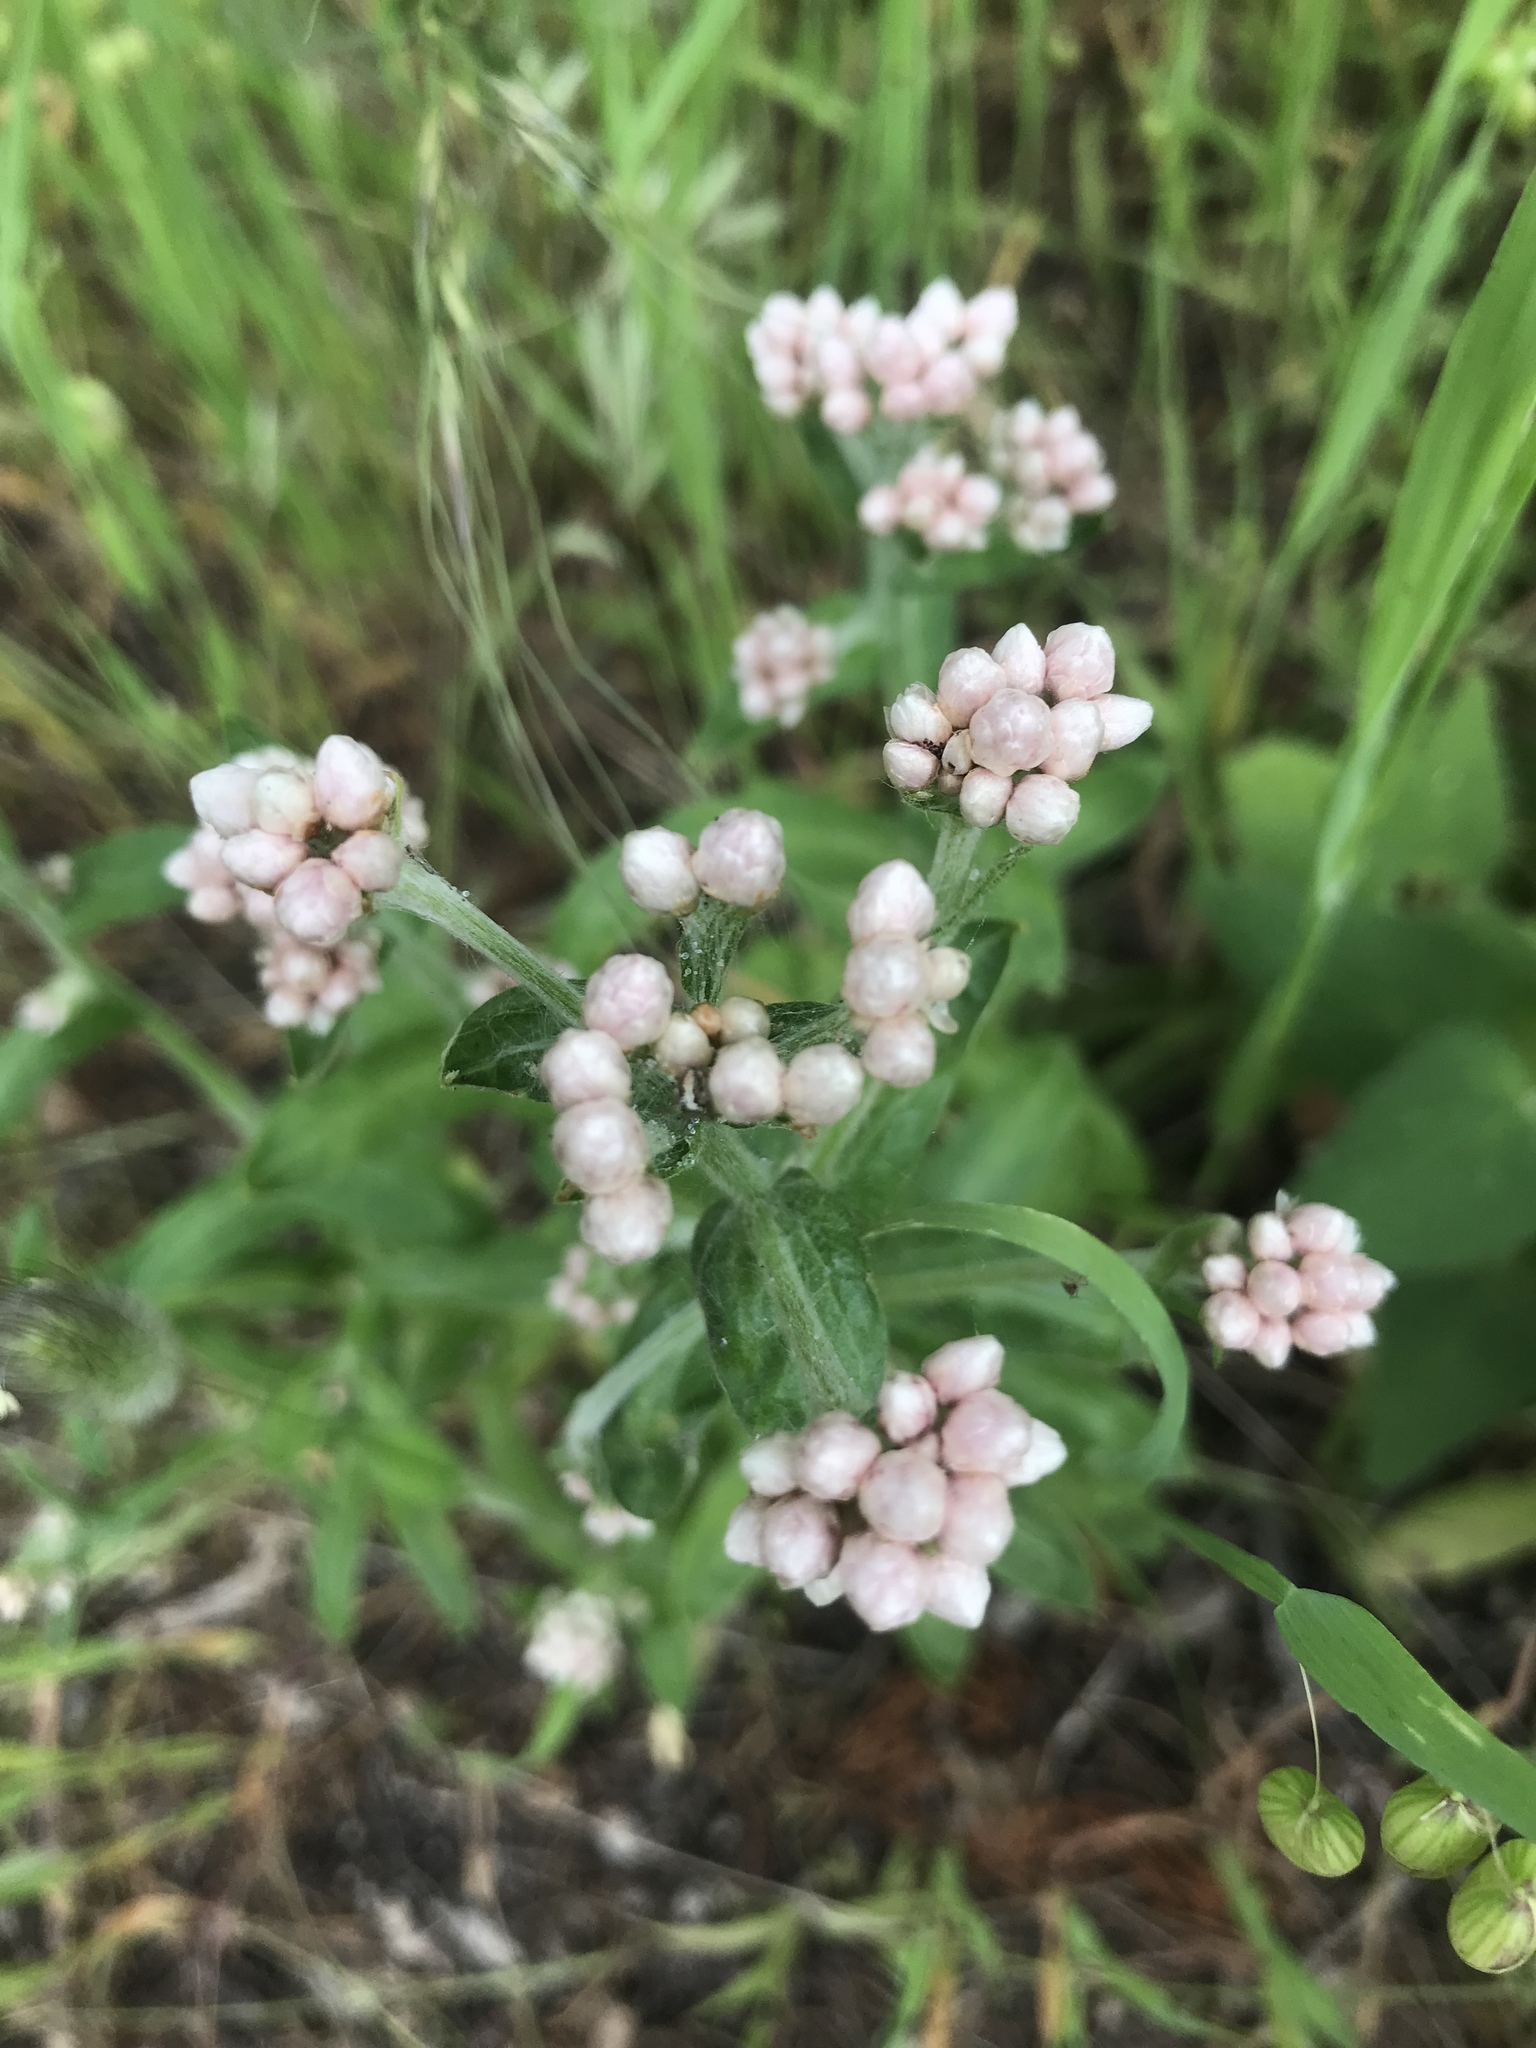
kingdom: Plantae
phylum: Tracheophyta
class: Magnoliopsida
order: Asterales
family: Asteraceae
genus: Pseudognaphalium
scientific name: Pseudognaphalium californicum
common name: California rabbit-tobacco
